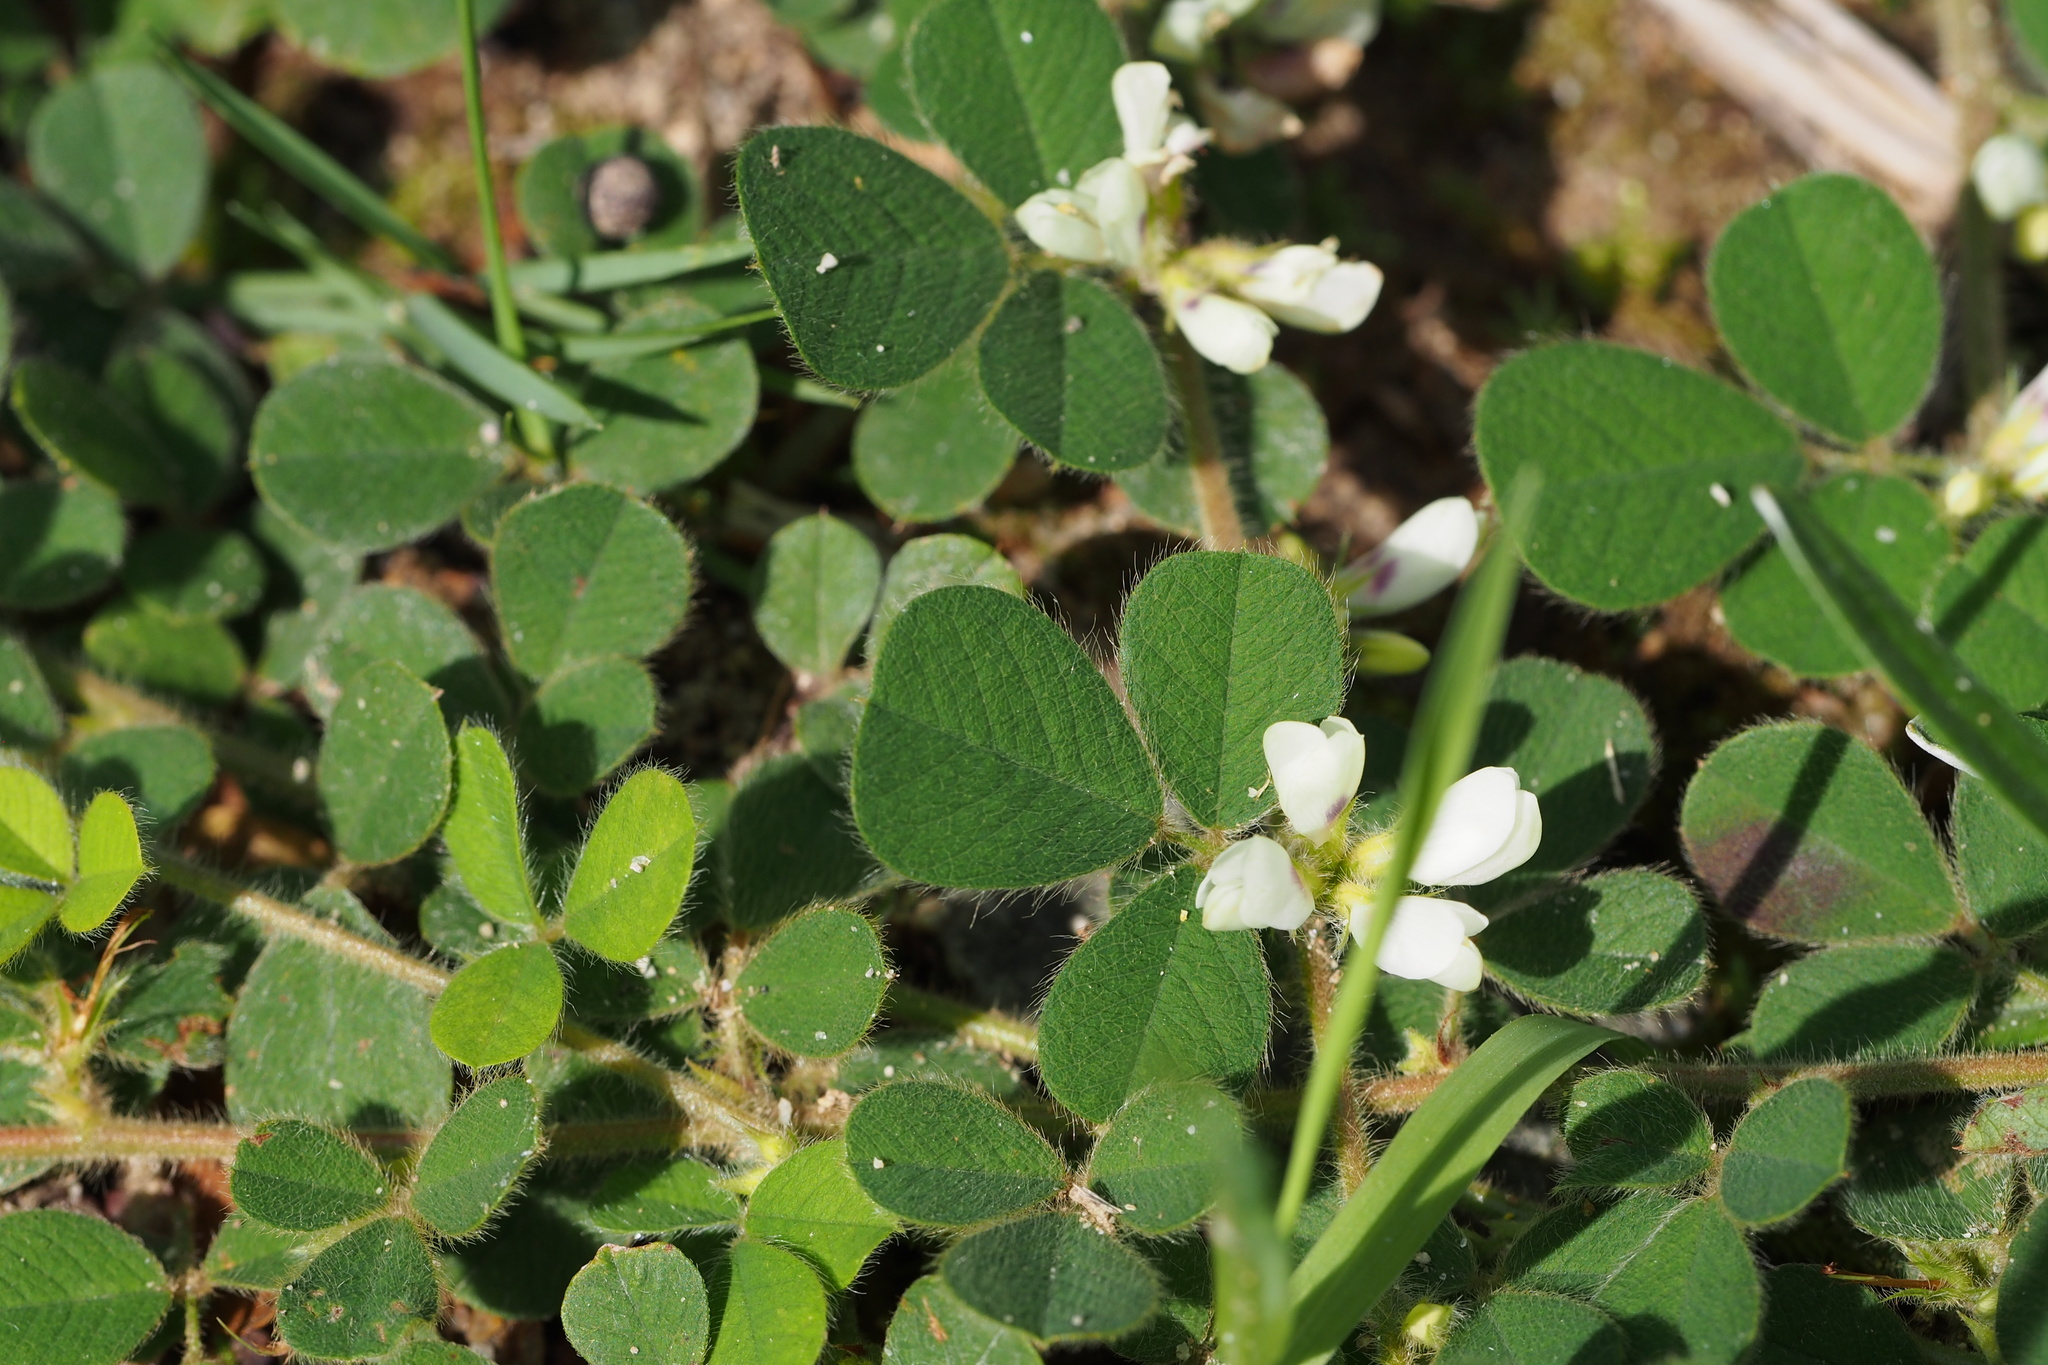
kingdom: Plantae
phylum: Tracheophyta
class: Magnoliopsida
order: Fabales
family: Fabaceae
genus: Lespedeza
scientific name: Lespedeza pilosa
